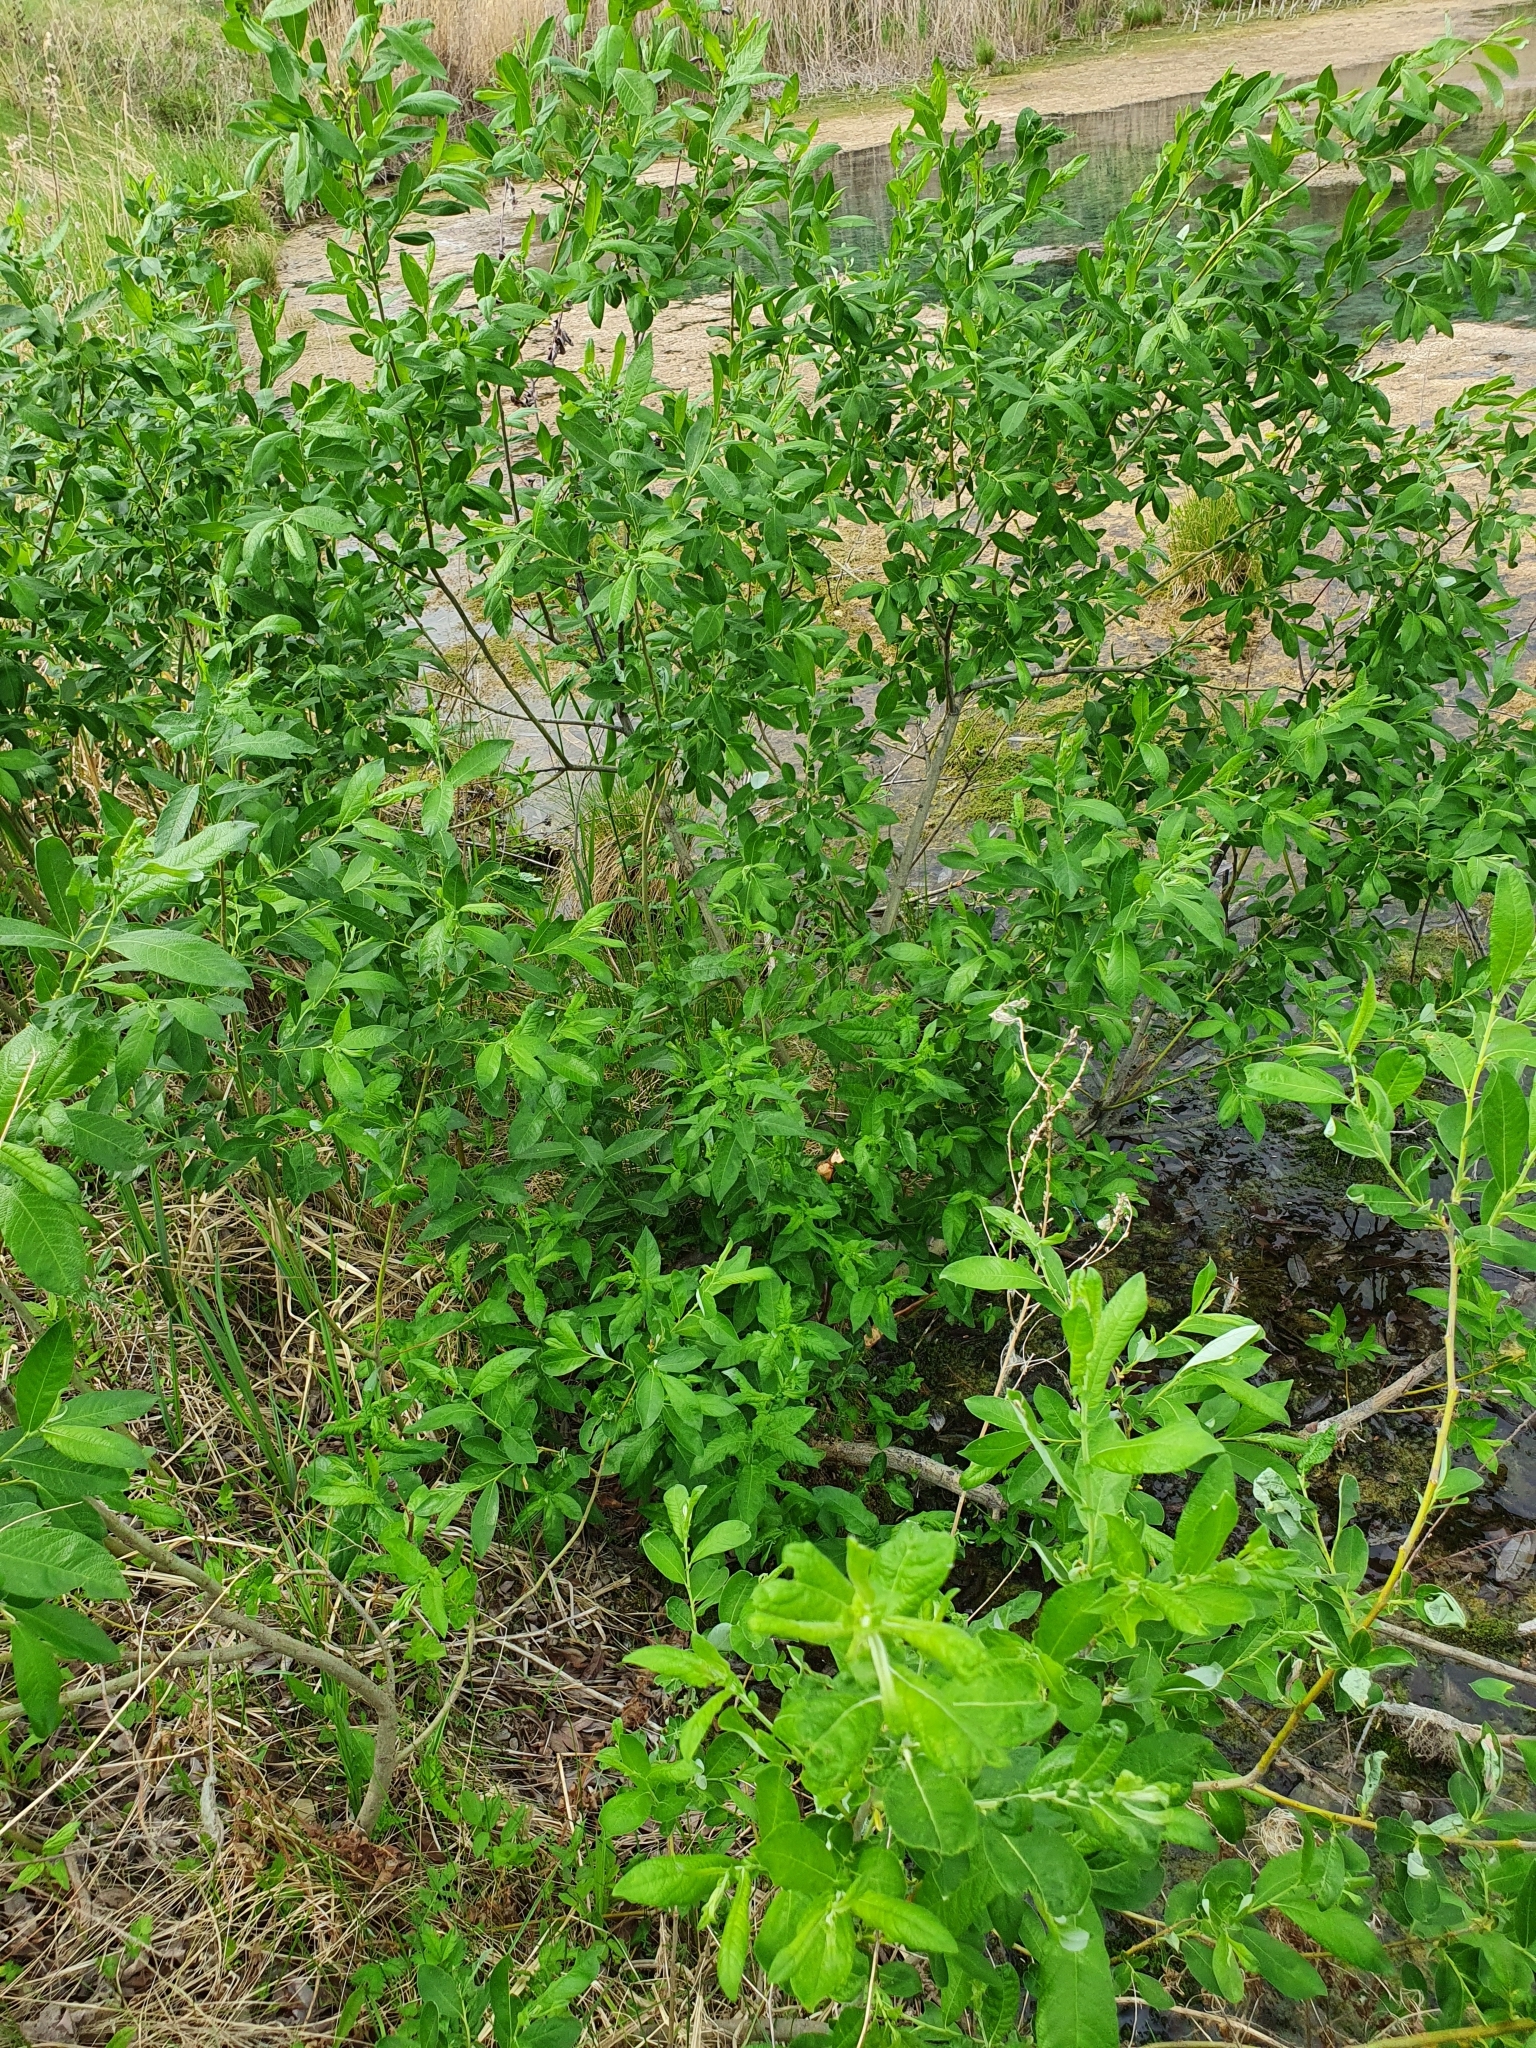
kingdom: Plantae
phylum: Tracheophyta
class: Magnoliopsida
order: Malpighiales
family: Salicaceae
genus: Salix
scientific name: Salix caprea
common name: Goat willow
